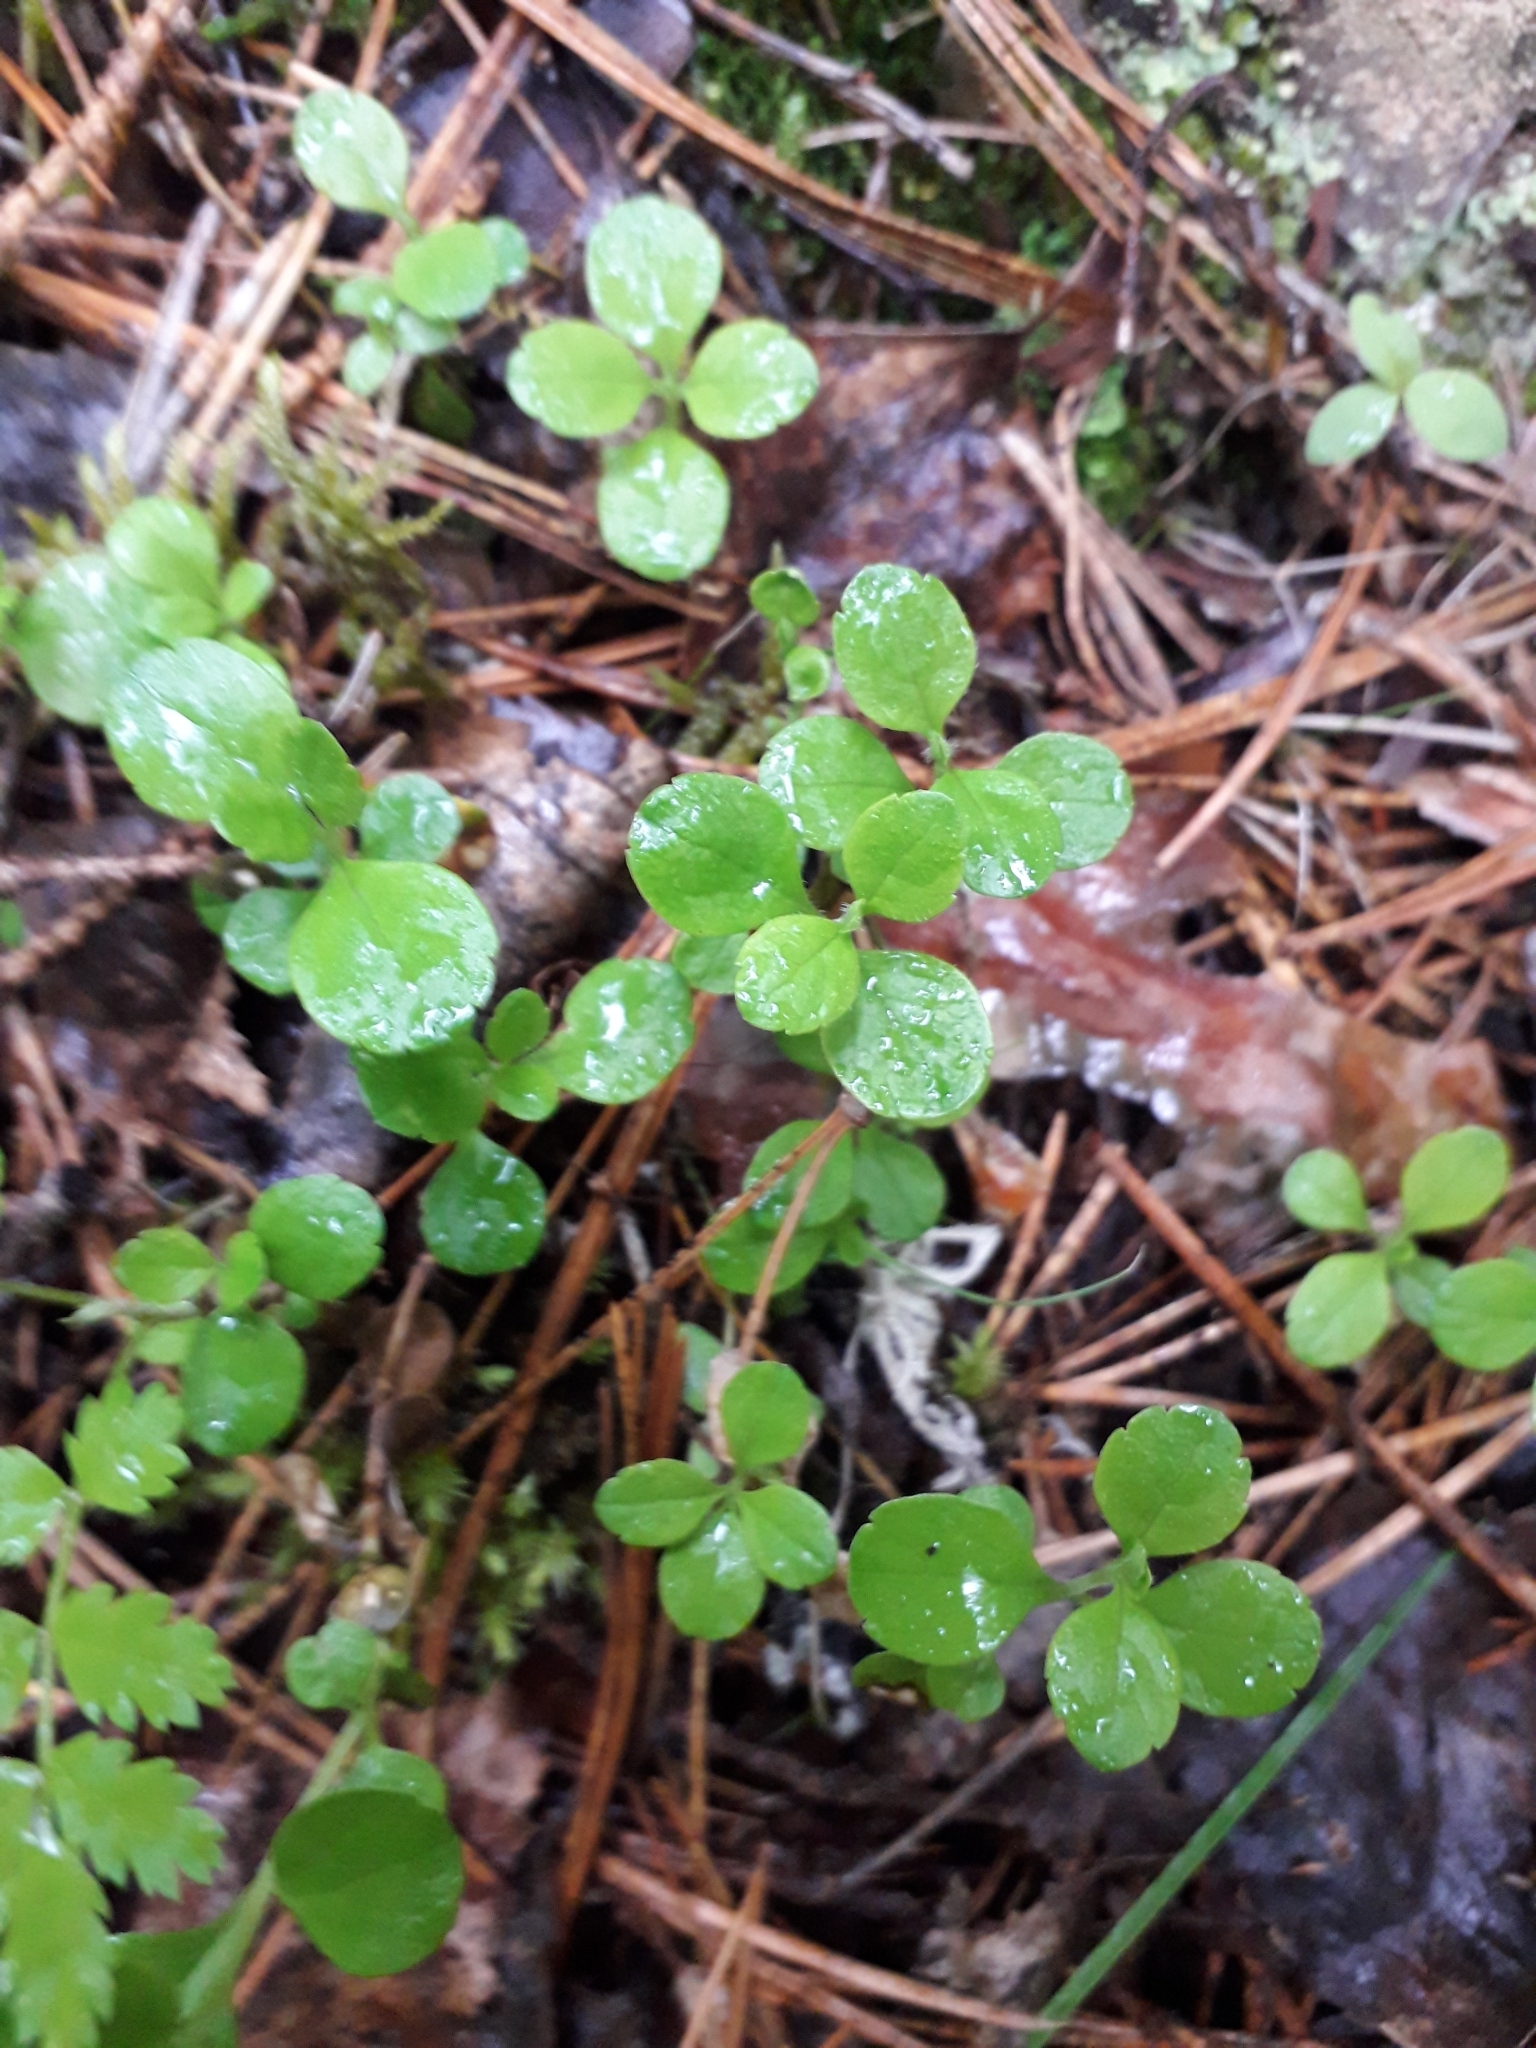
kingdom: Plantae
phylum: Tracheophyta
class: Magnoliopsida
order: Dipsacales
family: Caprifoliaceae
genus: Linnaea
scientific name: Linnaea borealis
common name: Twinflower
